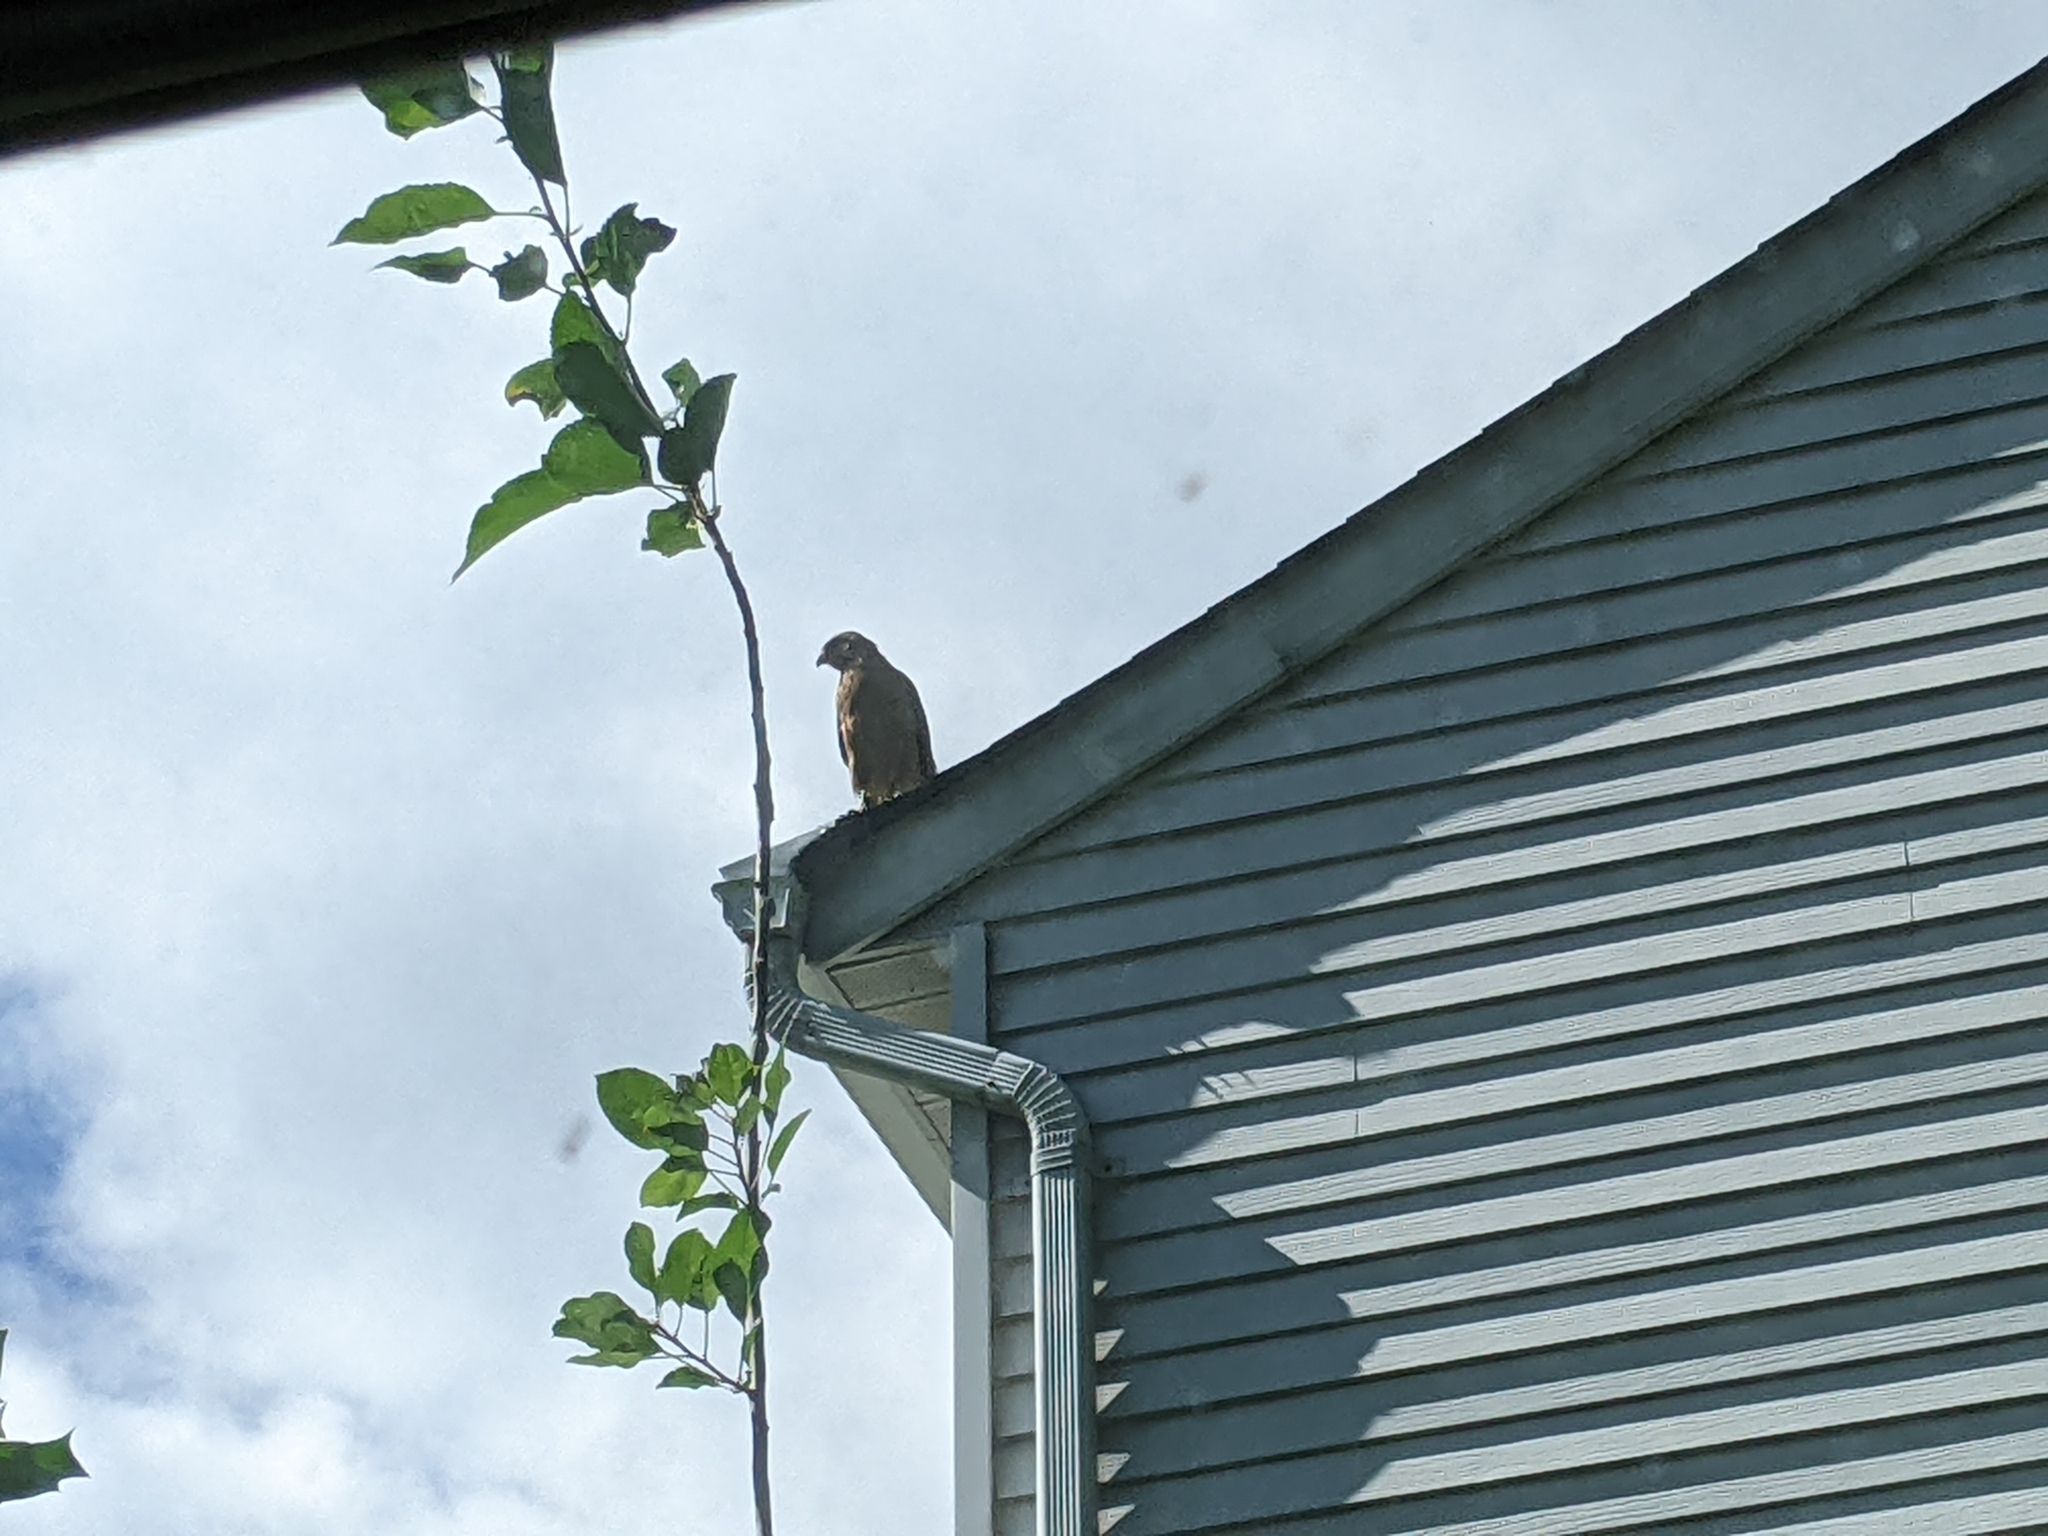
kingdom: Animalia
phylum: Chordata
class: Aves
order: Accipitriformes
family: Accipitridae
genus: Buteo
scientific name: Buteo lineatus
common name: Red-shouldered hawk
